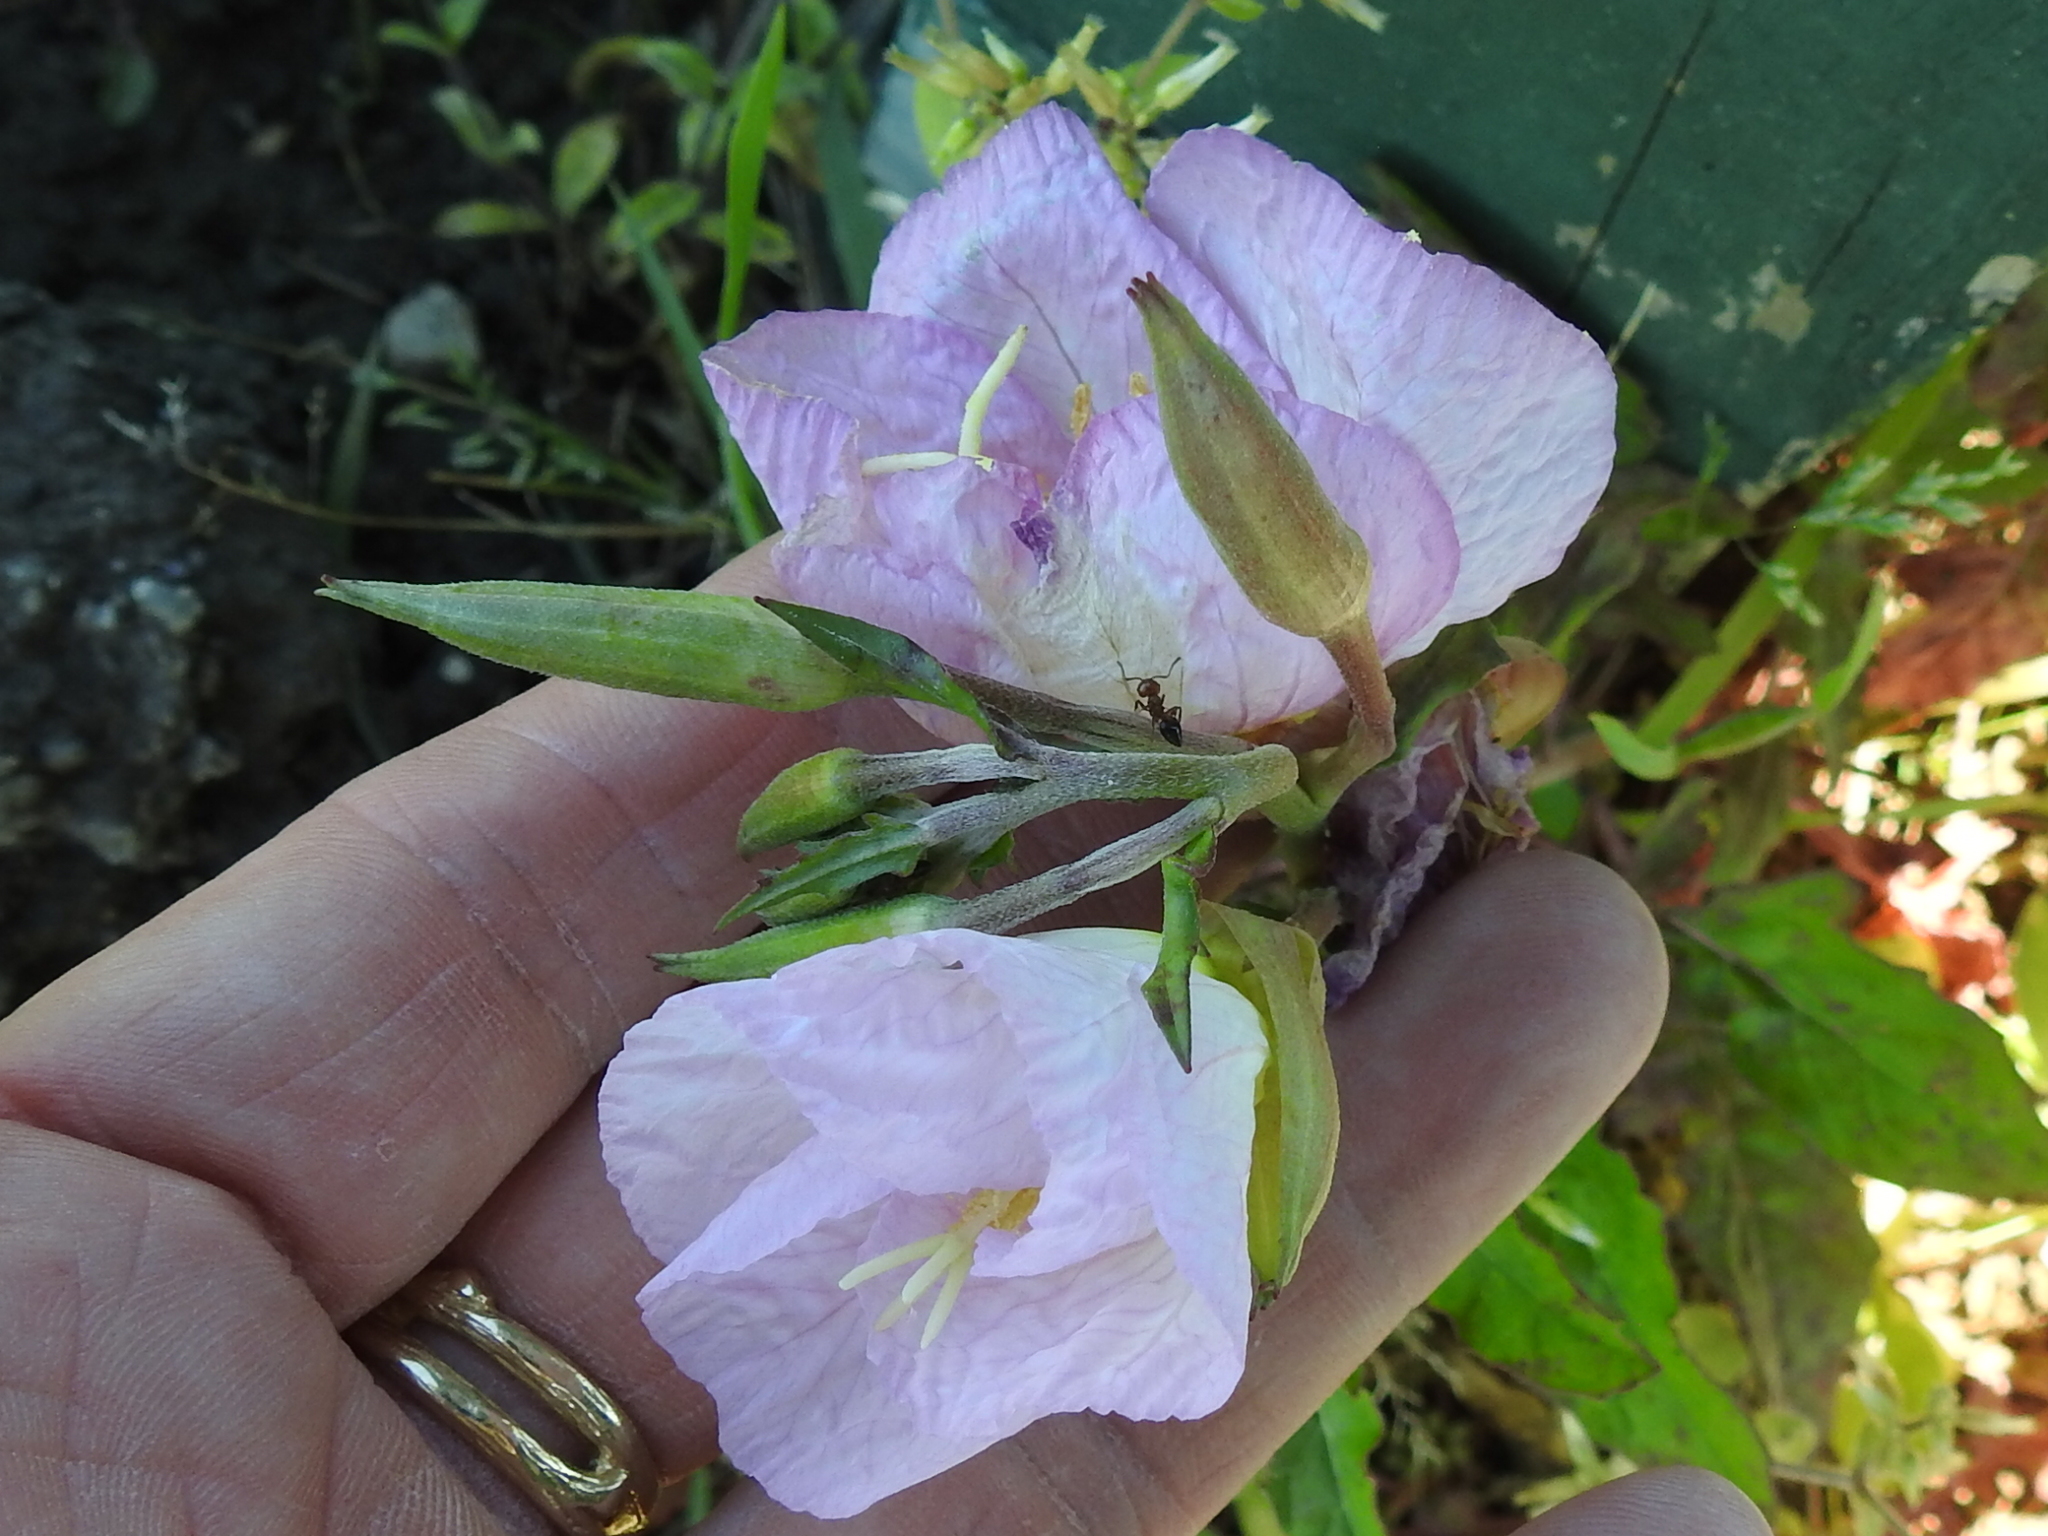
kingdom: Plantae
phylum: Tracheophyta
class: Magnoliopsida
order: Myrtales
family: Onagraceae
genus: Oenothera
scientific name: Oenothera speciosa
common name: White evening-primrose
